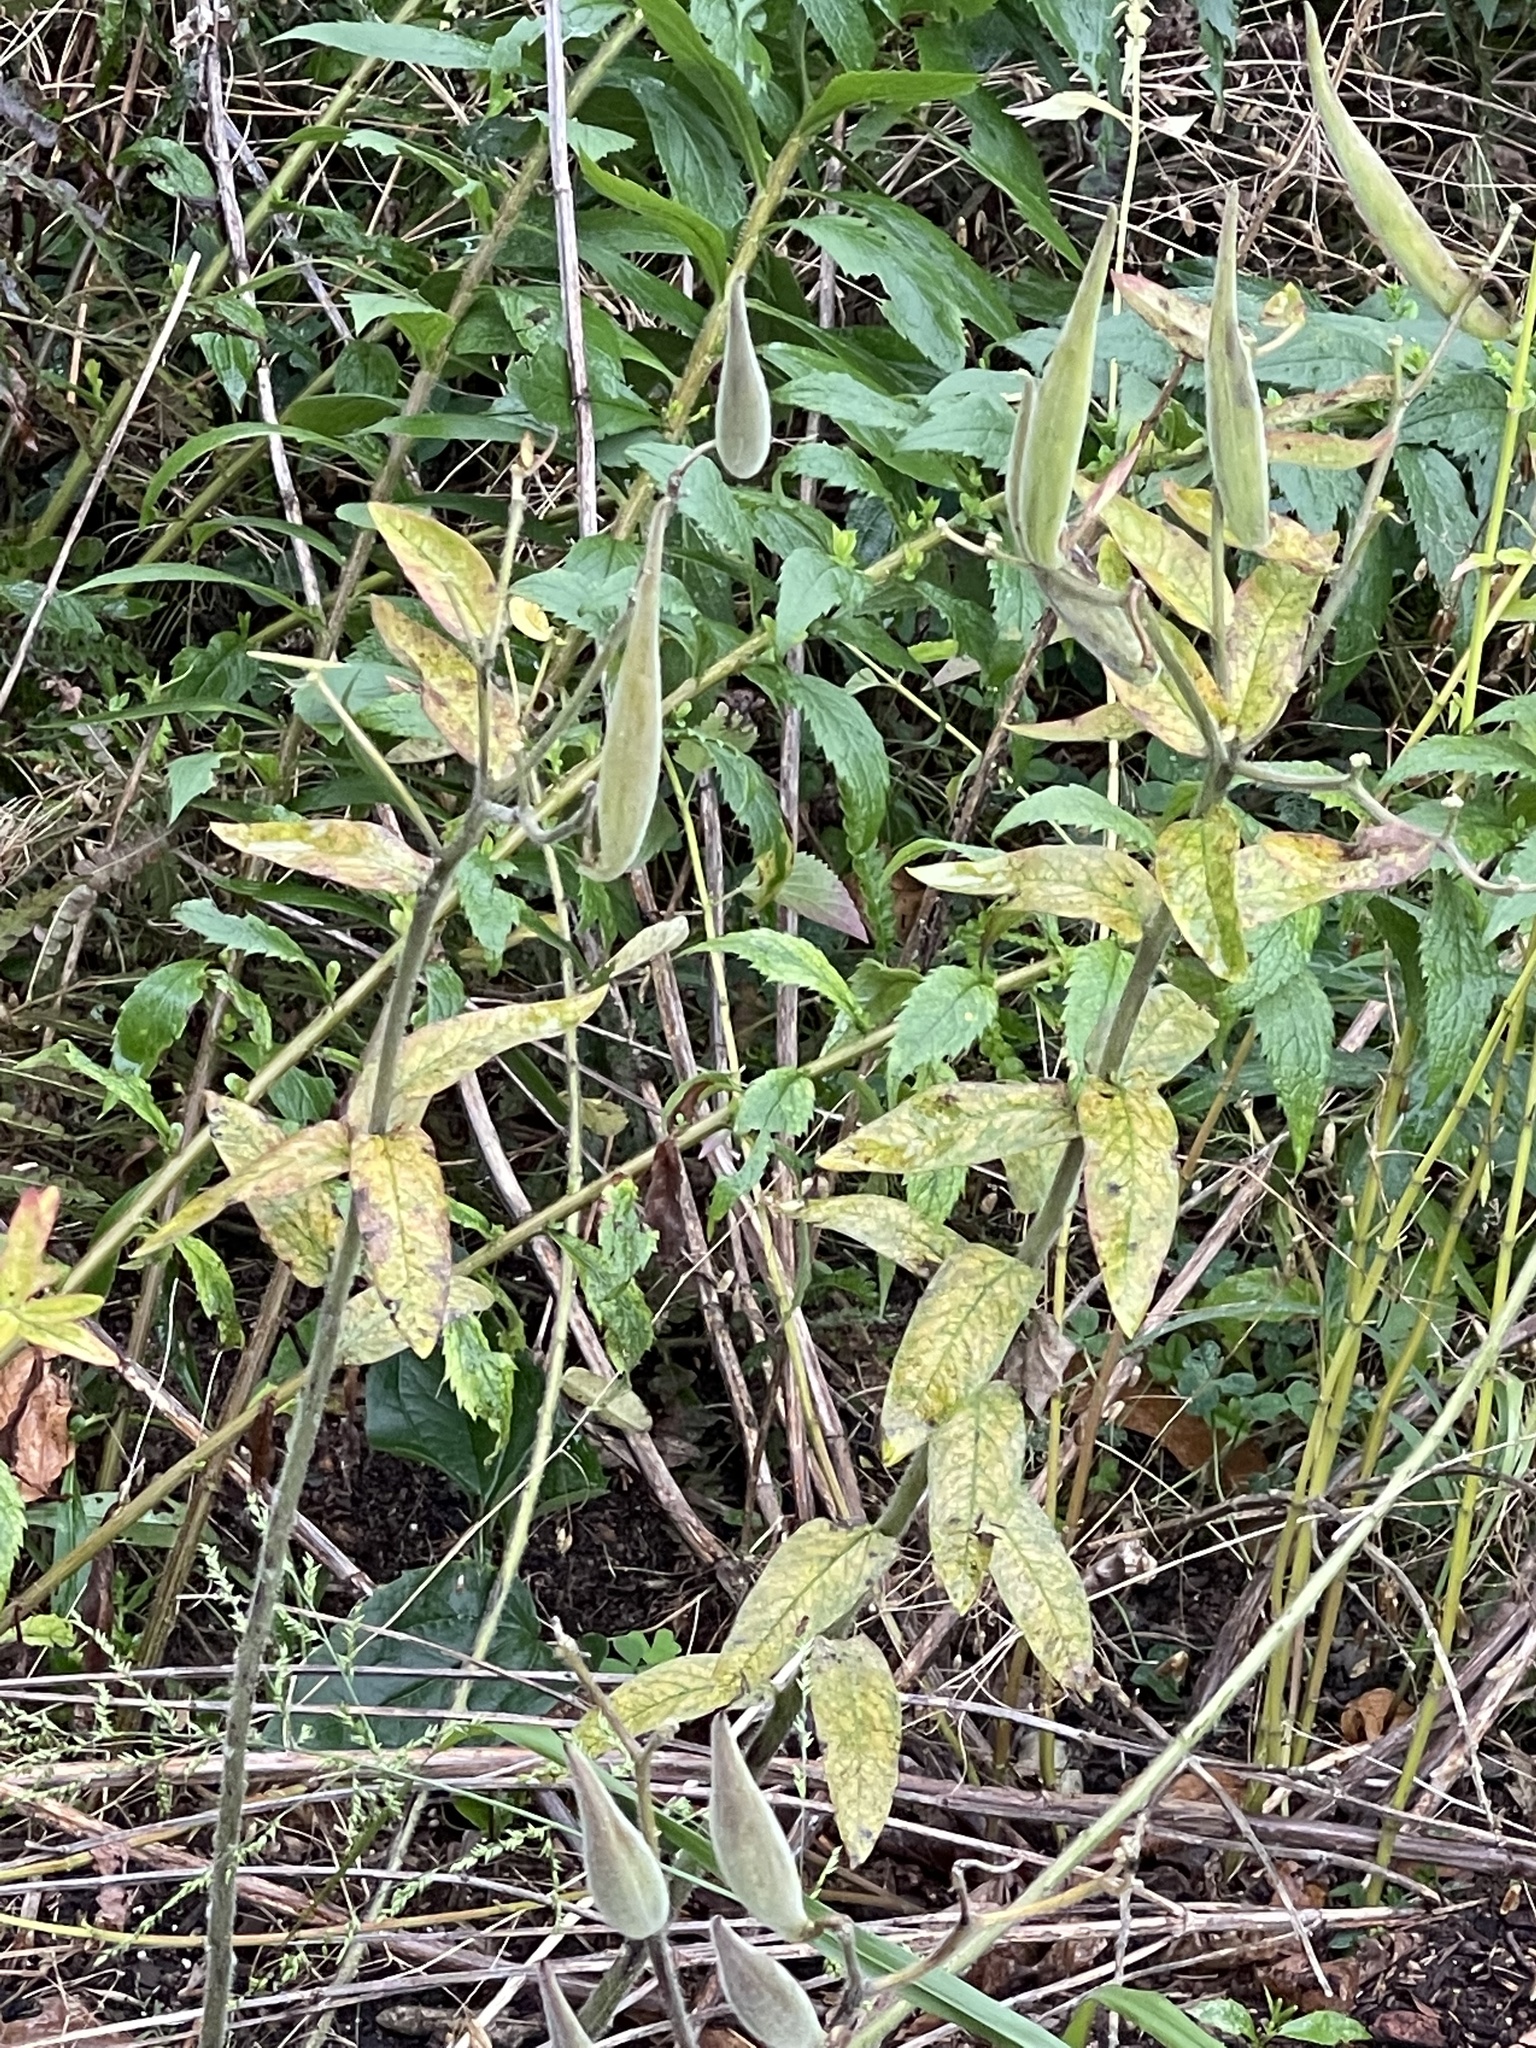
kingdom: Plantae
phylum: Tracheophyta
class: Magnoliopsida
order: Gentianales
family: Apocynaceae
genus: Asclepias
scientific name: Asclepias tuberosa
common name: Butterfly milkweed
